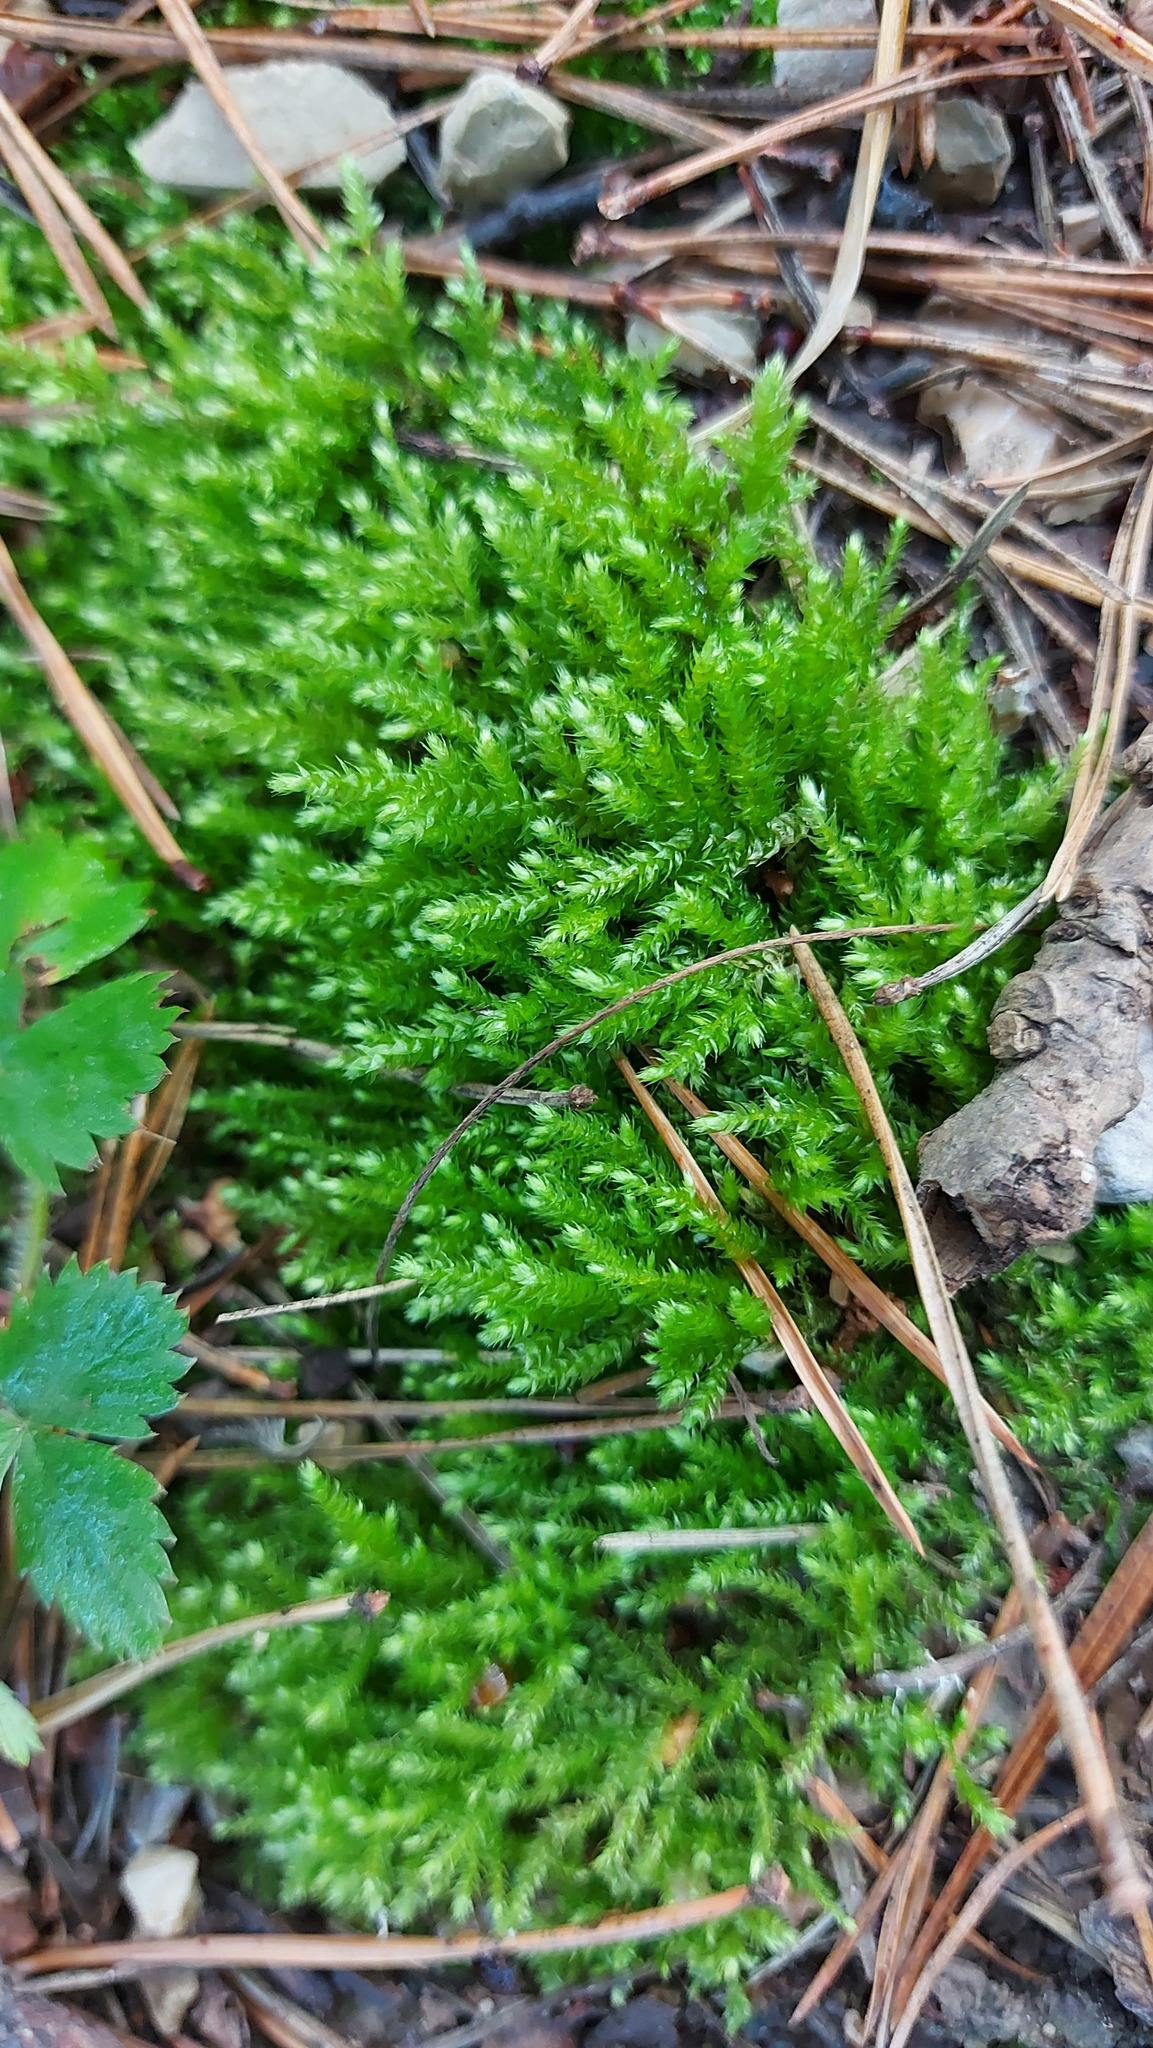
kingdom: Plantae
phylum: Bryophyta
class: Bryopsida
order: Hypnales
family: Brachytheciaceae
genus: Eurhynchium
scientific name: Eurhynchium angustirete
